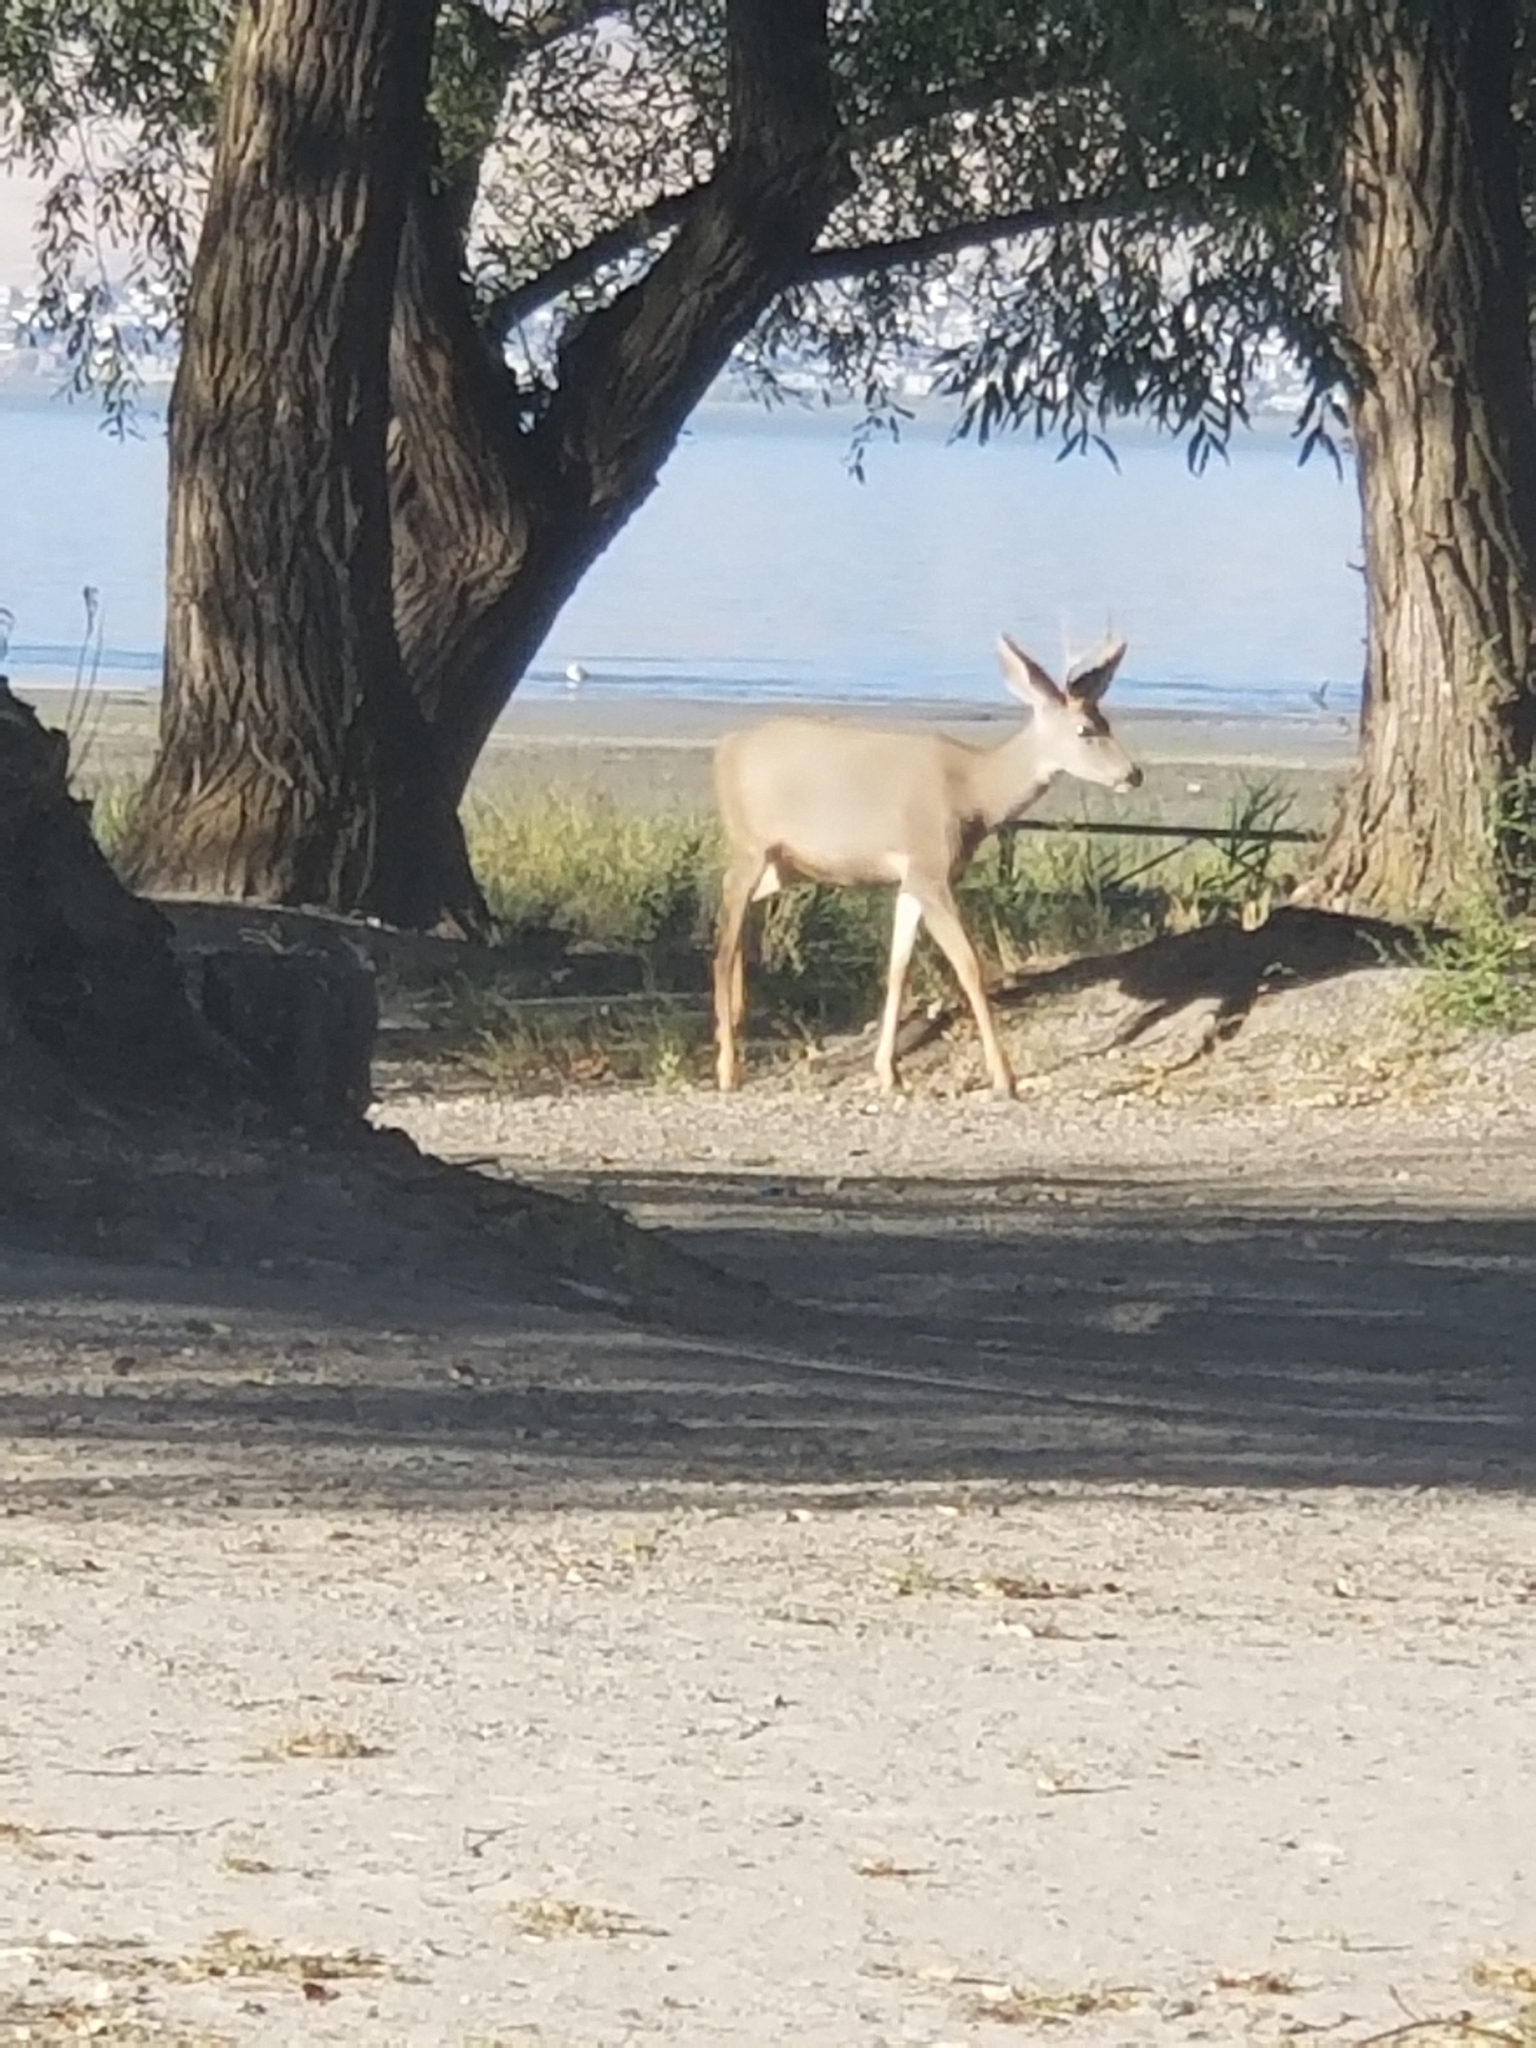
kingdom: Animalia
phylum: Chordata
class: Mammalia
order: Artiodactyla
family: Cervidae
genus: Odocoileus
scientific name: Odocoileus hemionus
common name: Mule deer
